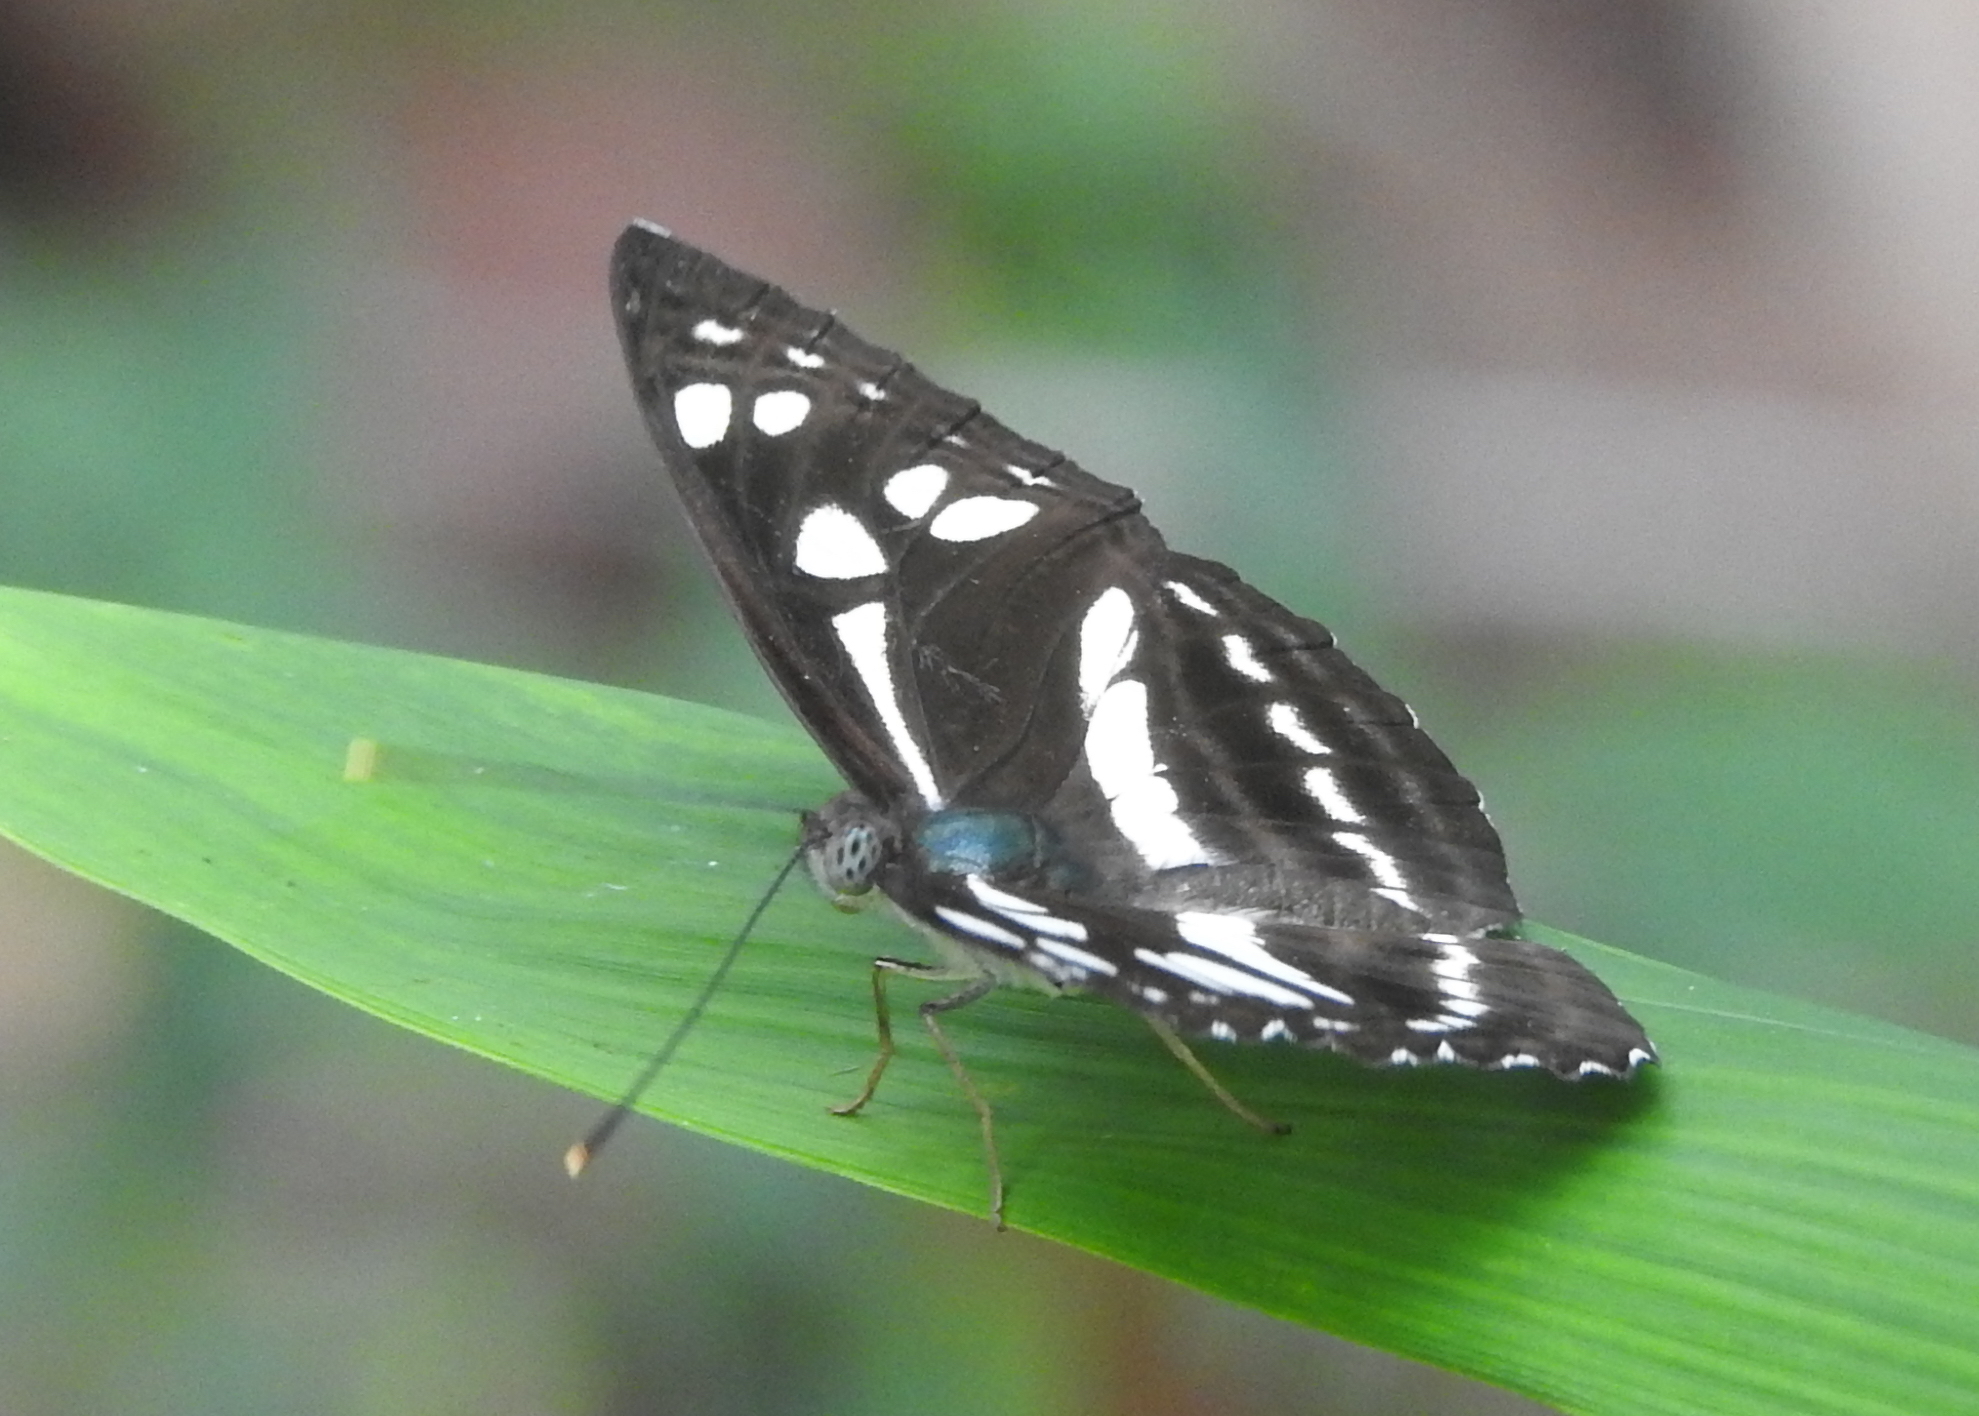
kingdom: Animalia
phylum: Arthropoda
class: Insecta
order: Lepidoptera
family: Nymphalidae
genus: Phaedyma
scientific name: Phaedyma columella
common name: Short banded sailer
